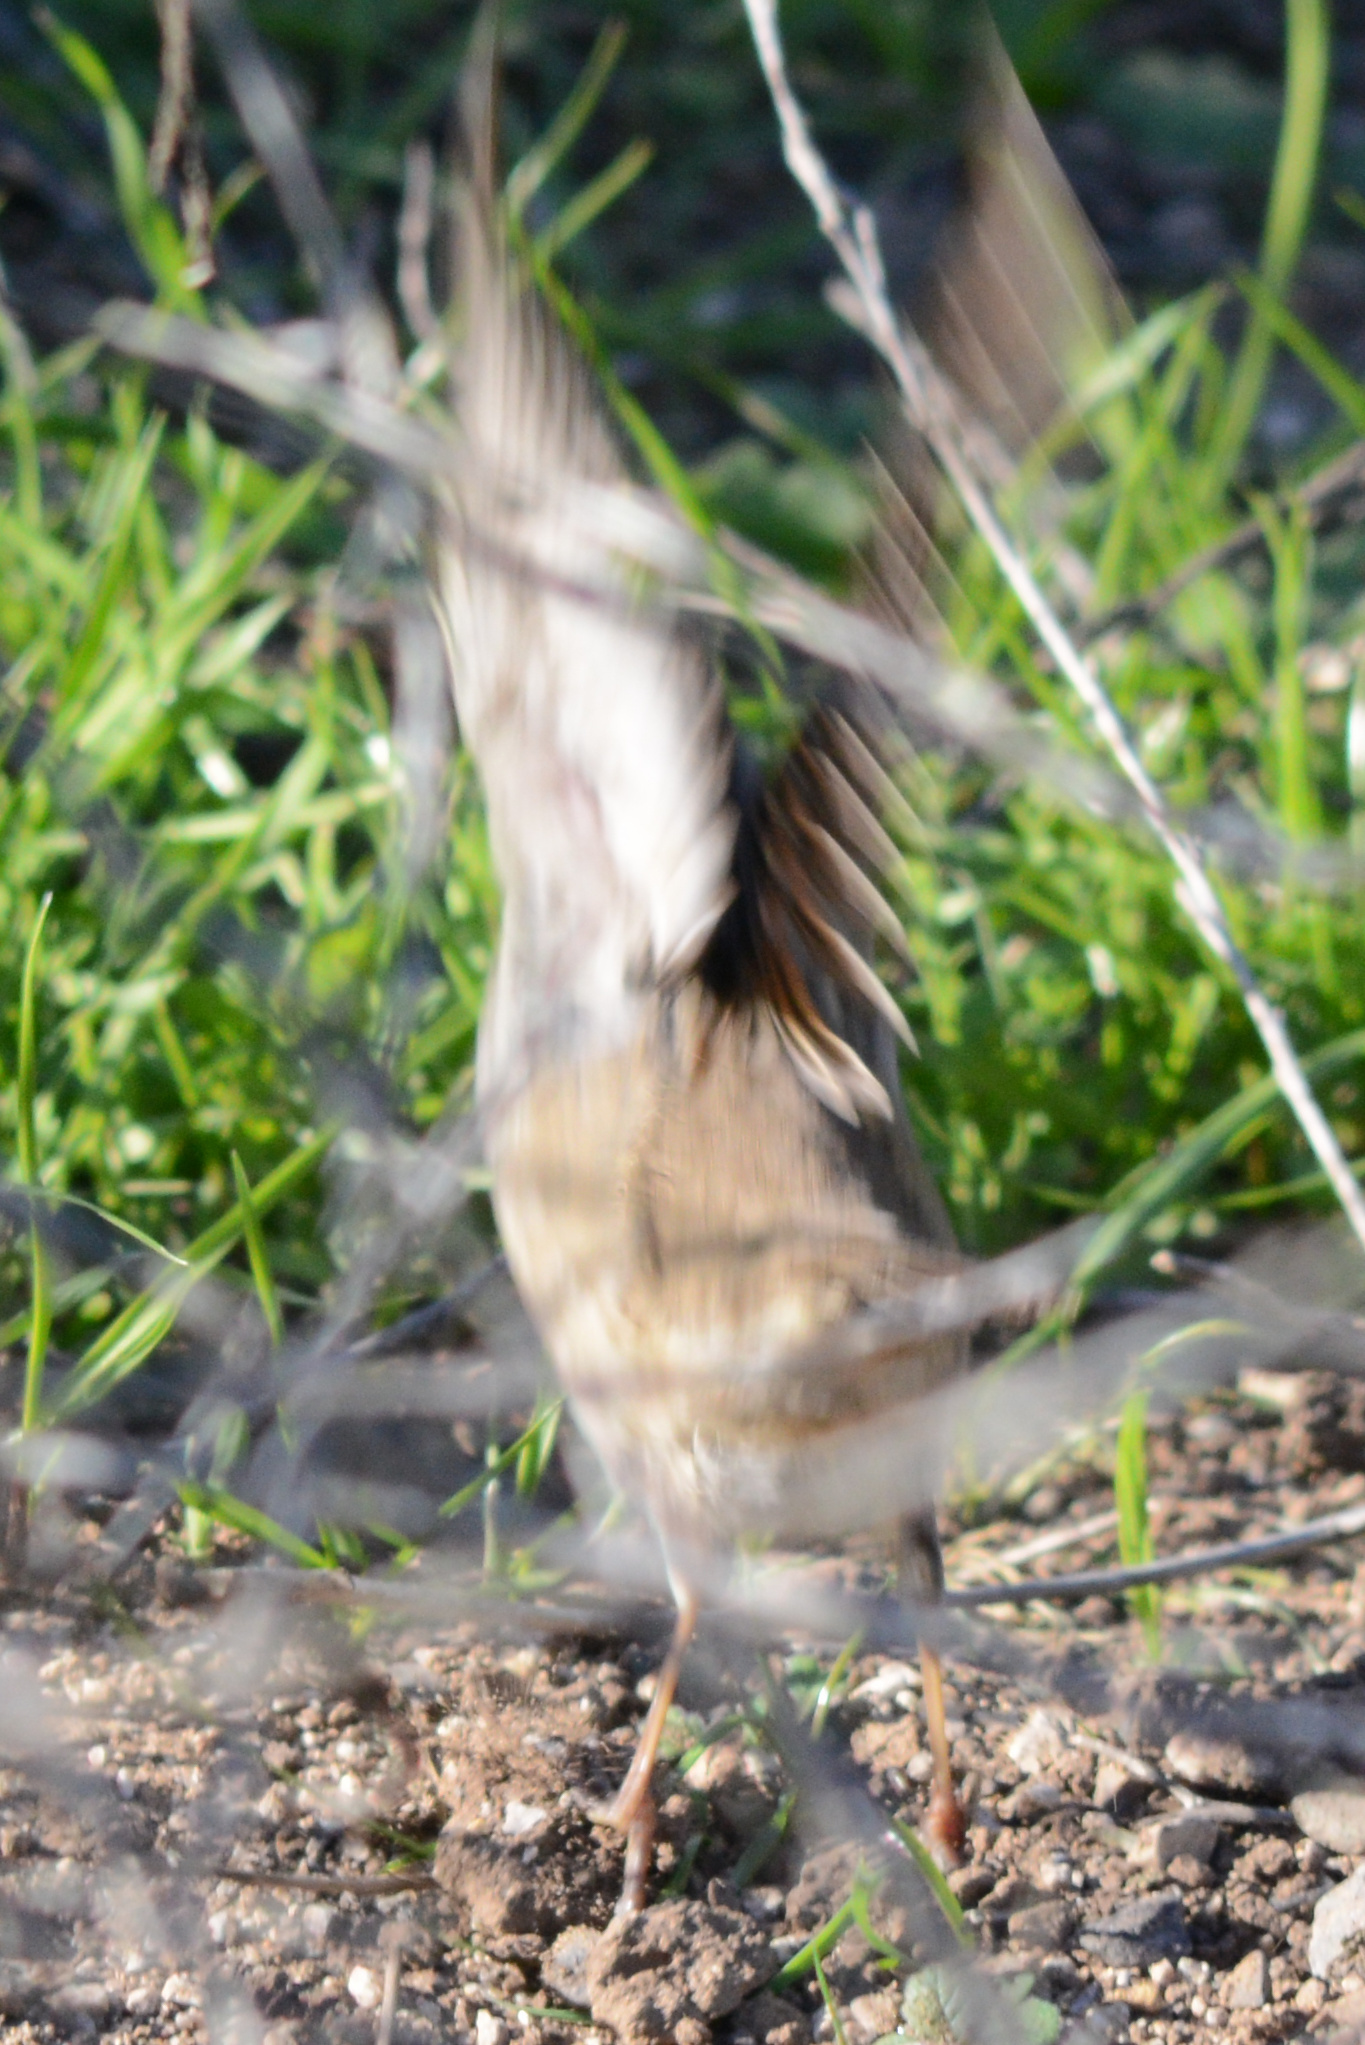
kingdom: Animalia
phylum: Chordata
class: Aves
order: Passeriformes
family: Passerellidae
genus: Zonotrichia
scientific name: Zonotrichia leucophrys
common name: White-crowned sparrow
